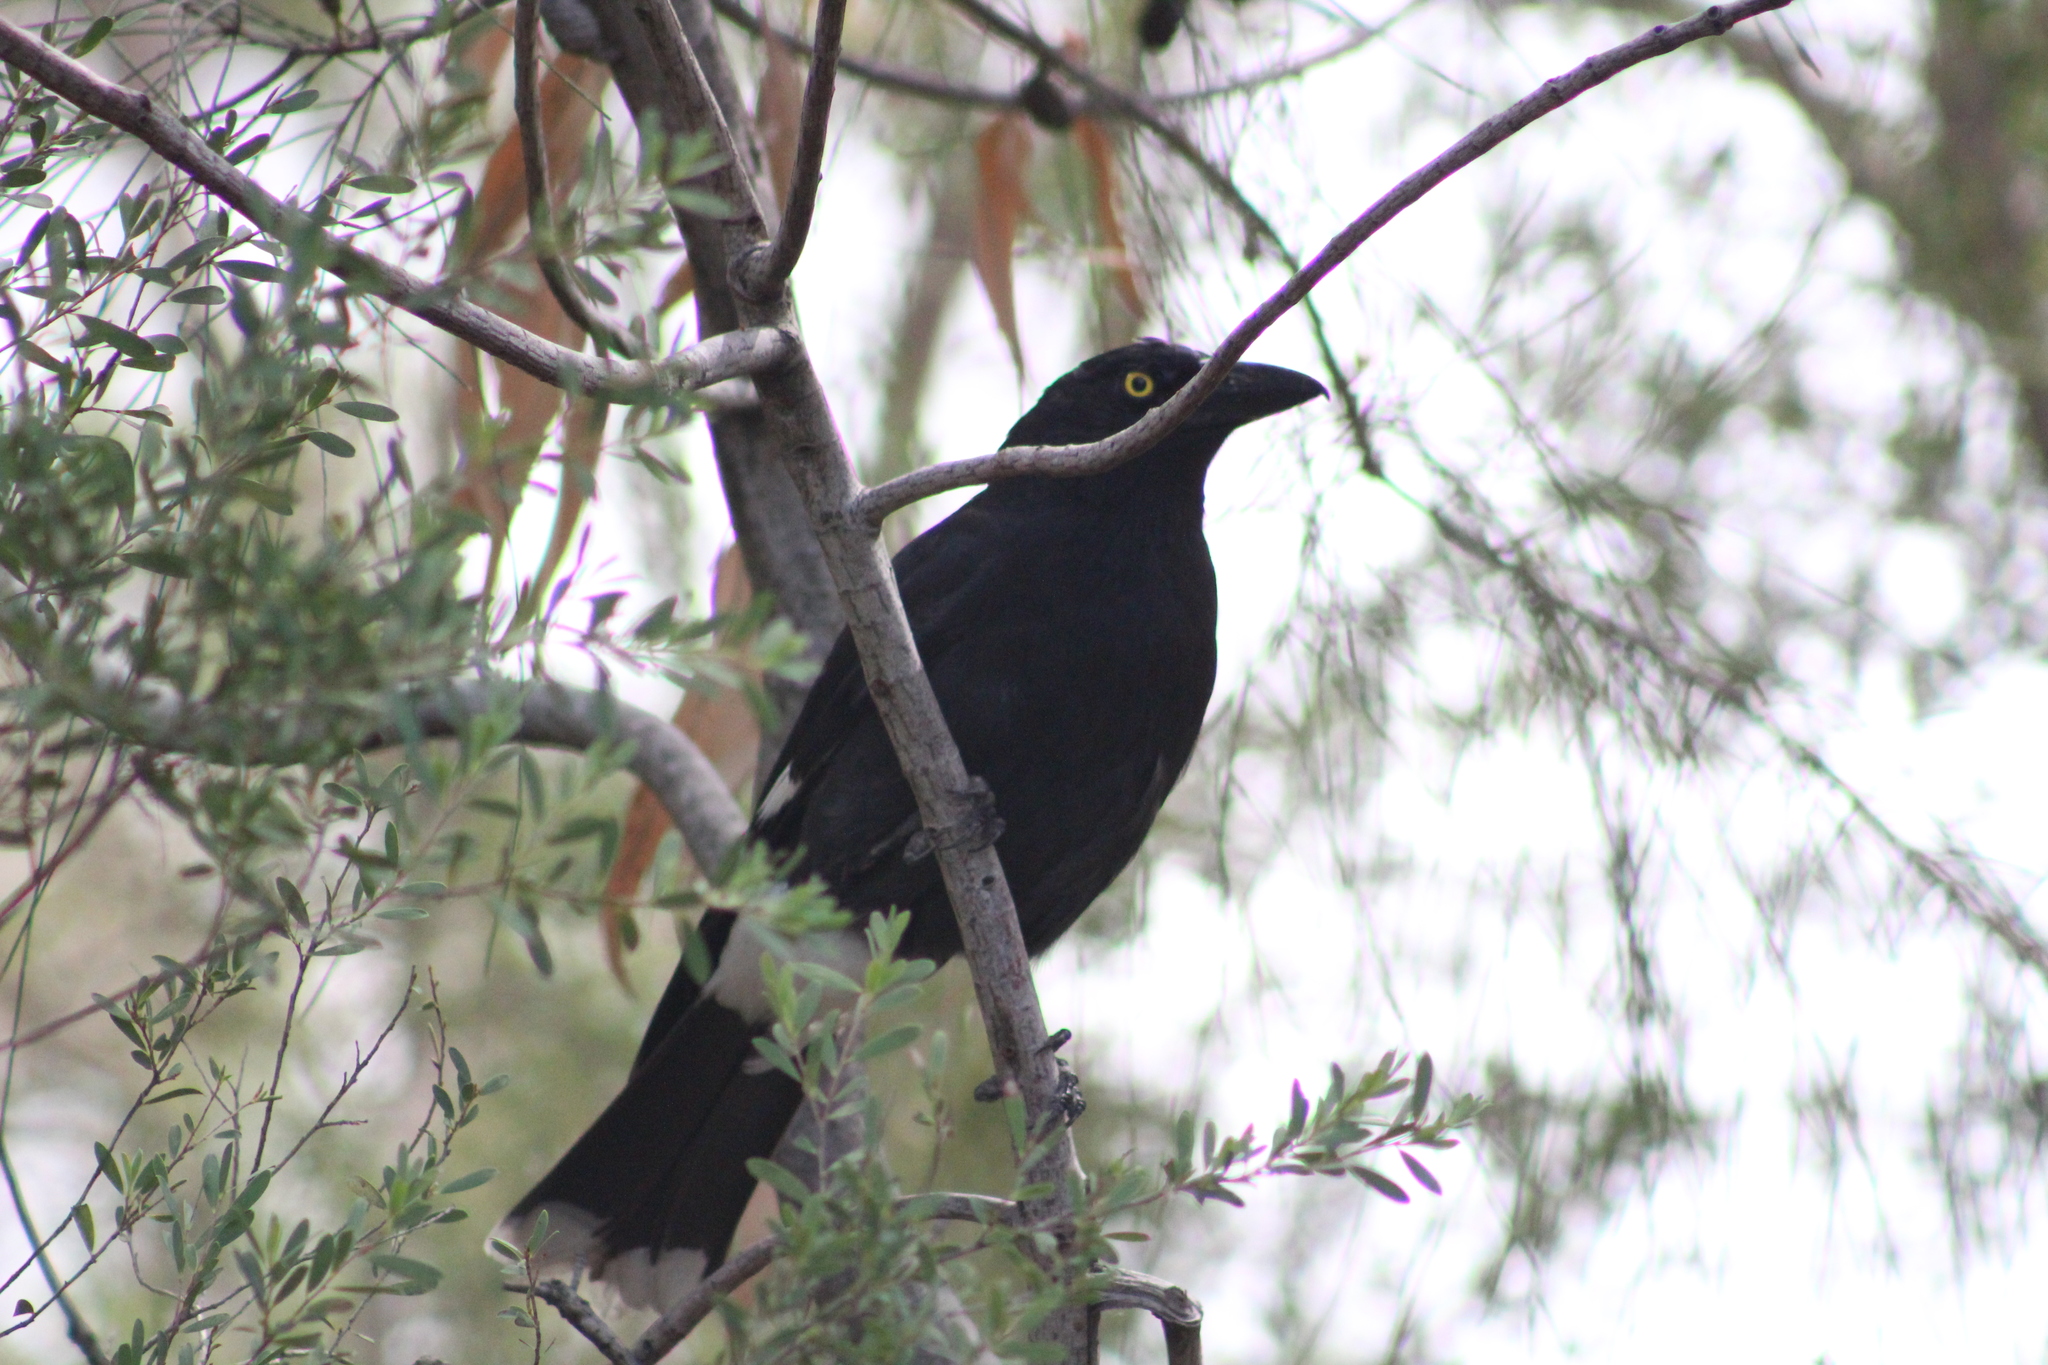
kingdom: Animalia
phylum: Chordata
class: Aves
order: Passeriformes
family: Cracticidae
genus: Strepera
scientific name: Strepera graculina
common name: Pied currawong
